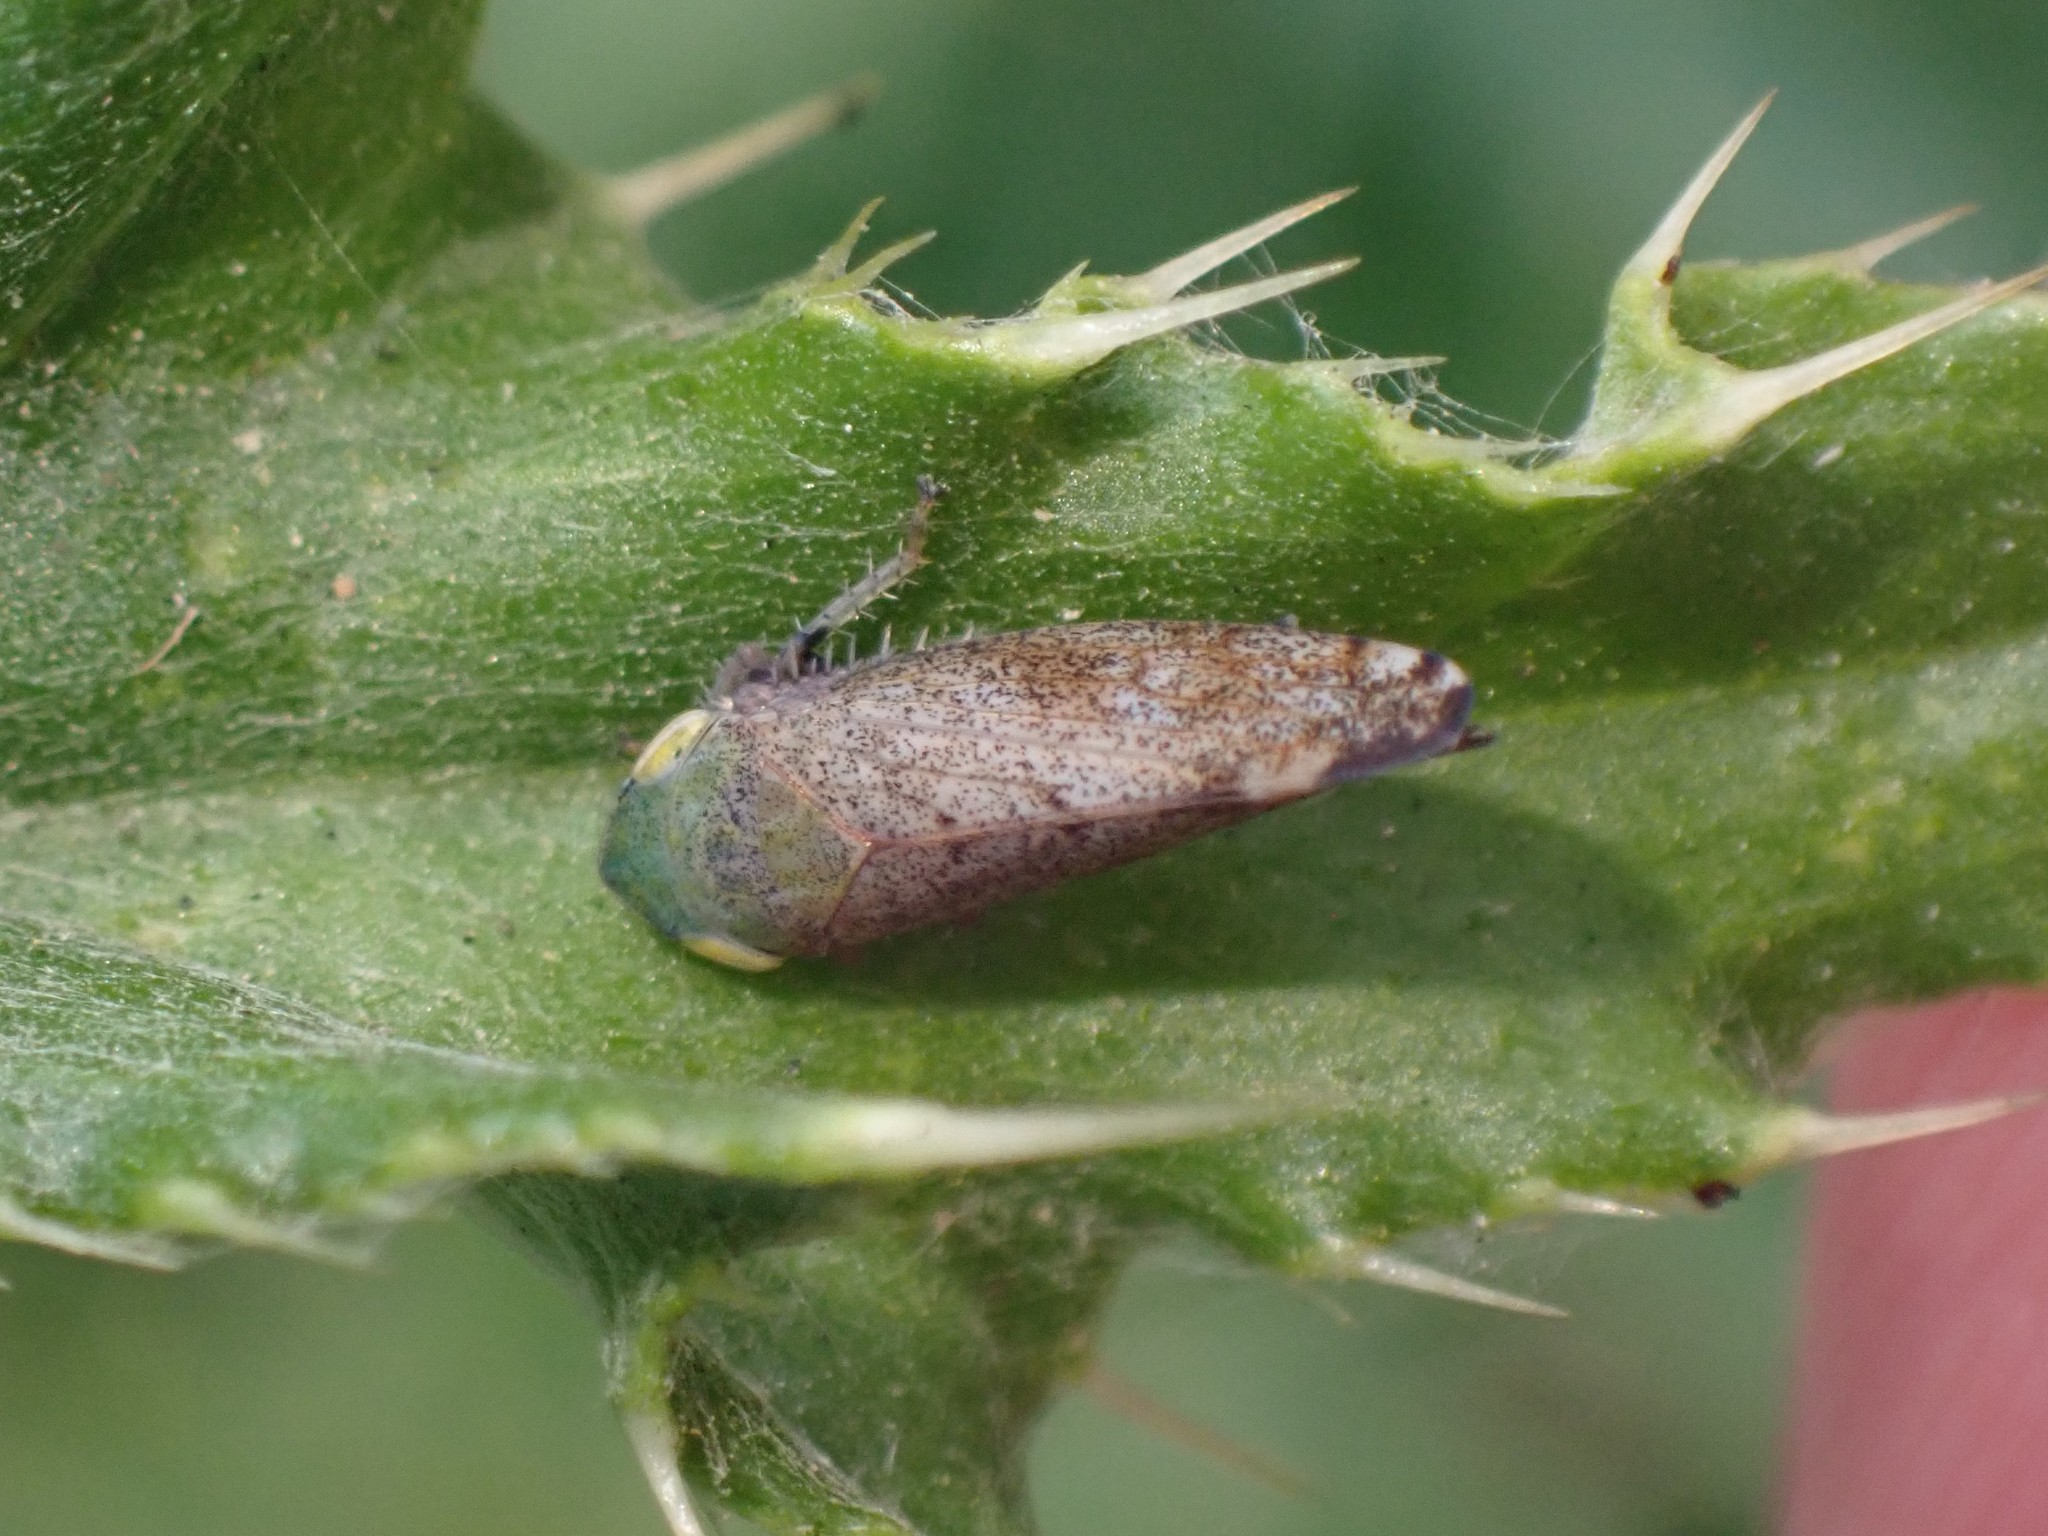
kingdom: Animalia
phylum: Arthropoda
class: Insecta
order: Hemiptera
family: Cicadellidae
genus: Fieberiella
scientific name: Fieberiella florii
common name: Flor’s leafhopper
